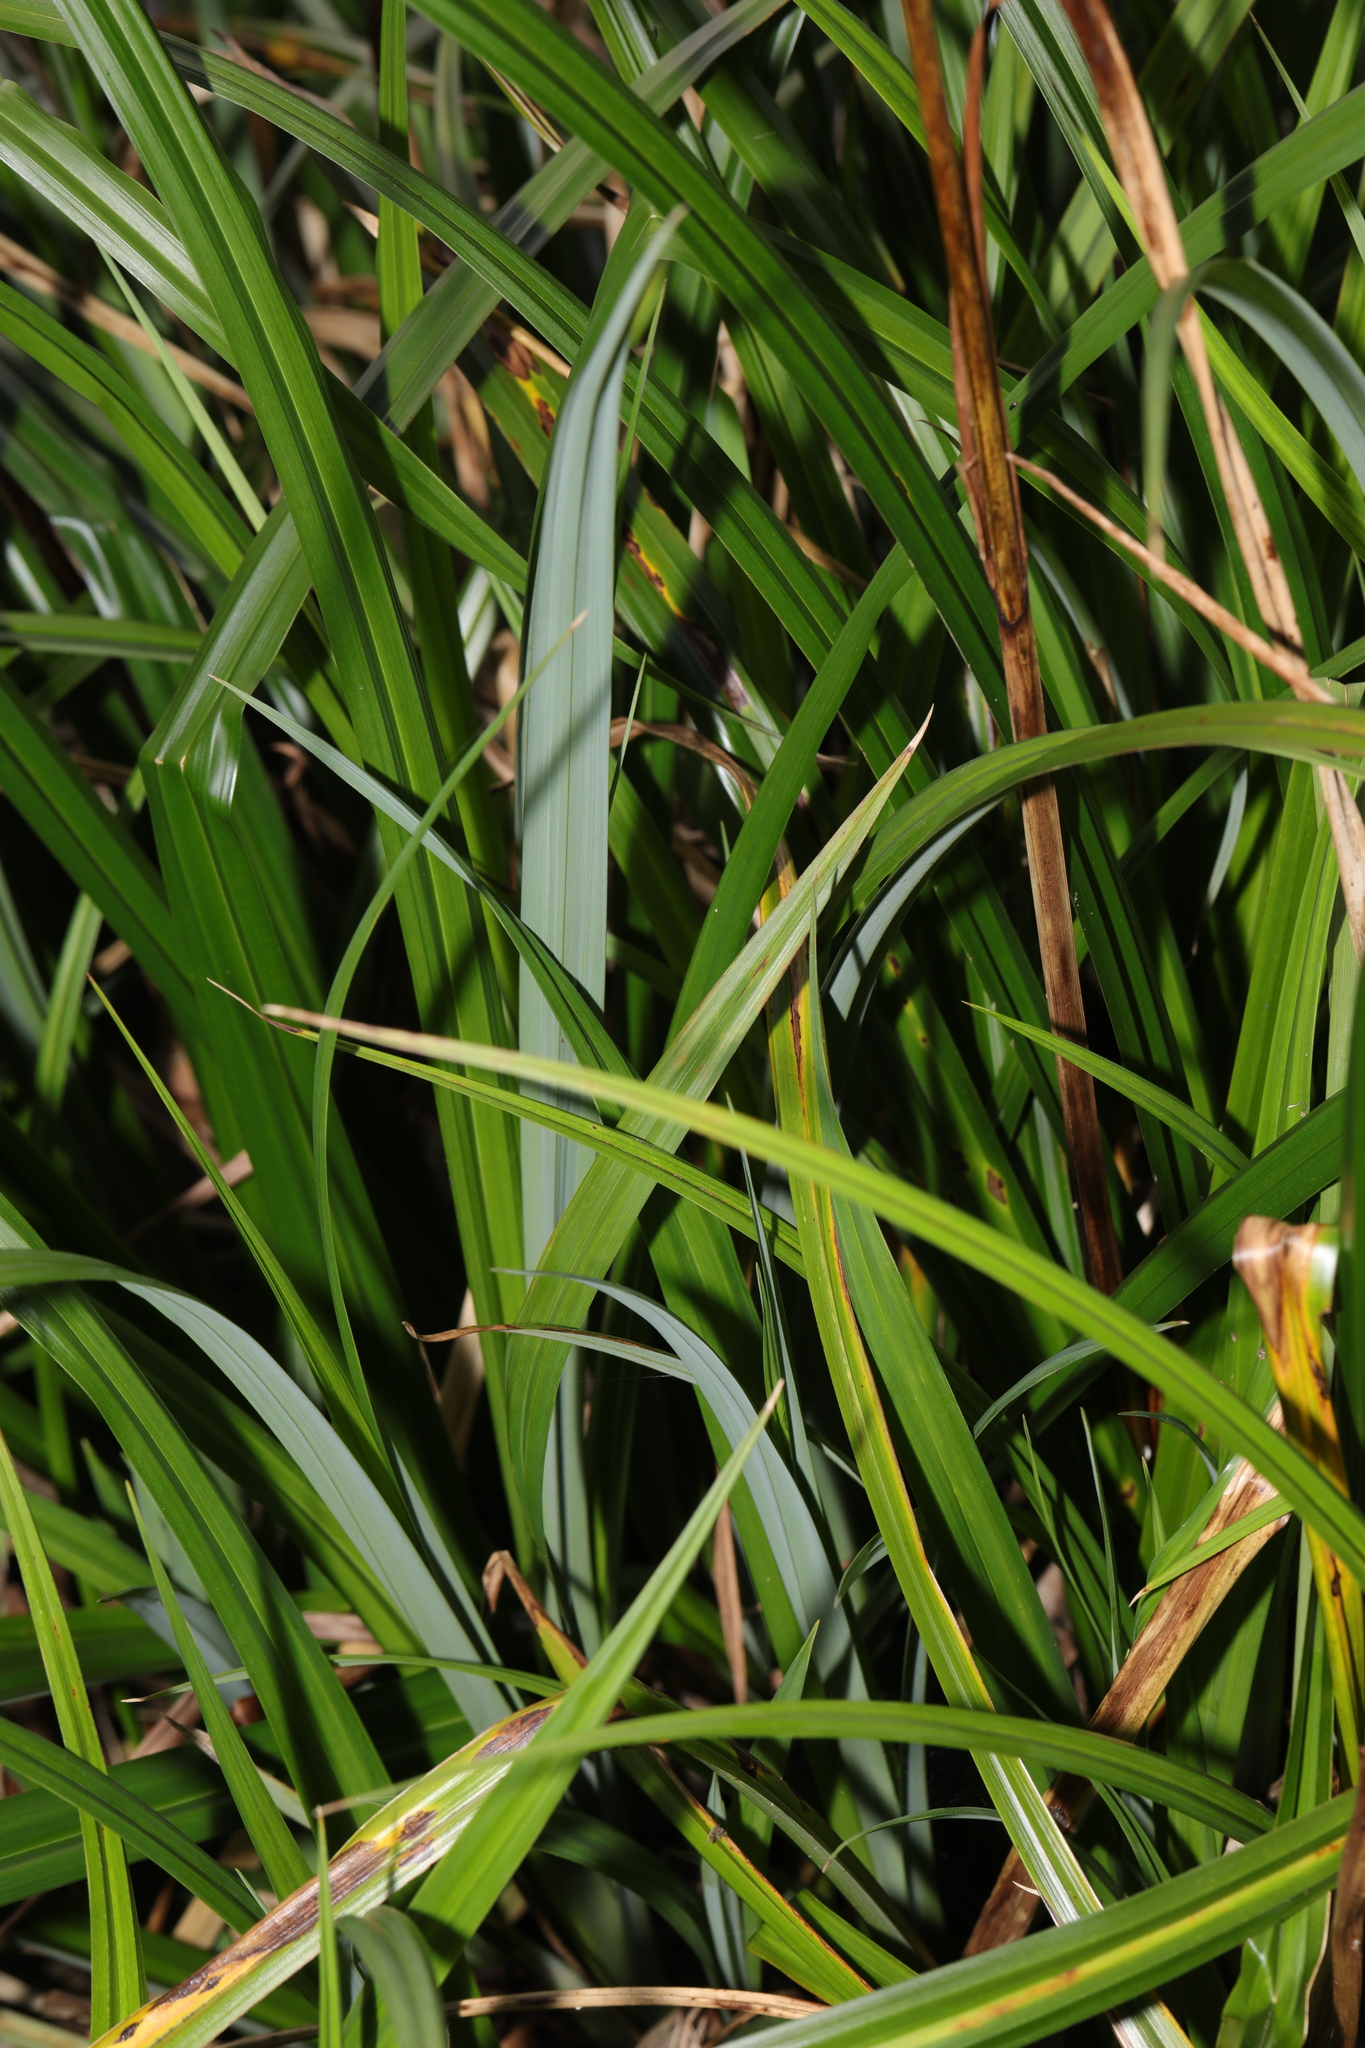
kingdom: Plantae
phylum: Tracheophyta
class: Liliopsida
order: Poales
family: Cyperaceae
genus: Carex
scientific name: Carex pendula
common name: Pendulous sedge
